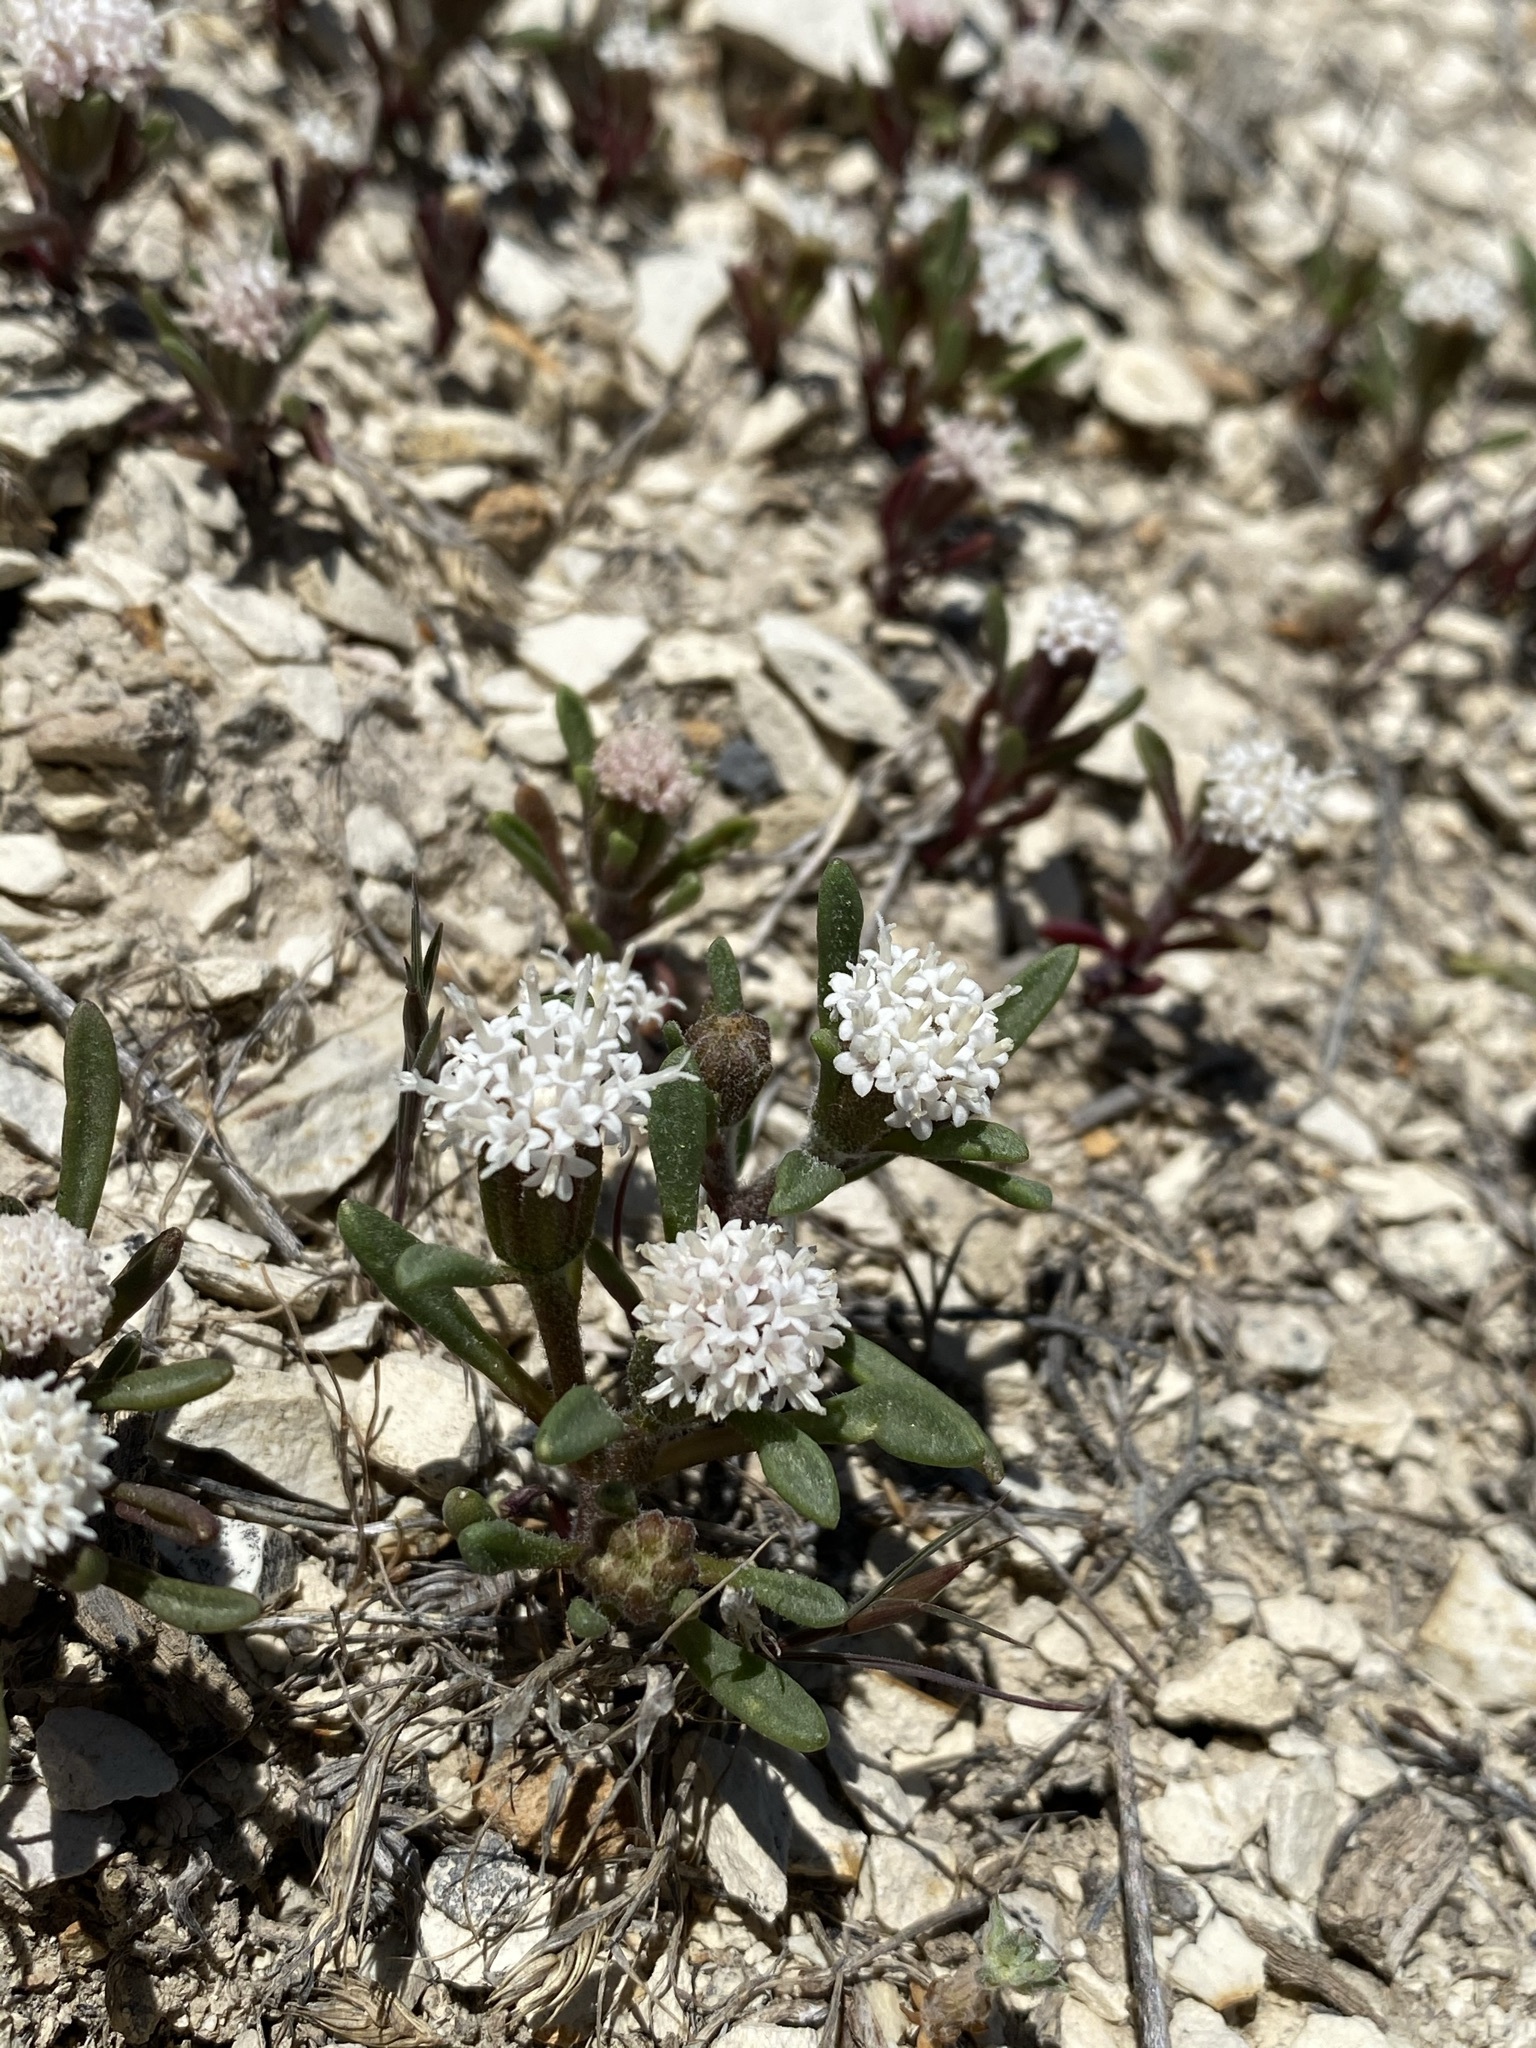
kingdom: Plantae
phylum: Tracheophyta
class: Magnoliopsida
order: Asterales
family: Asteraceae
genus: Chaenactis
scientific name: Chaenactis cusickii
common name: Cusick's pincushion
